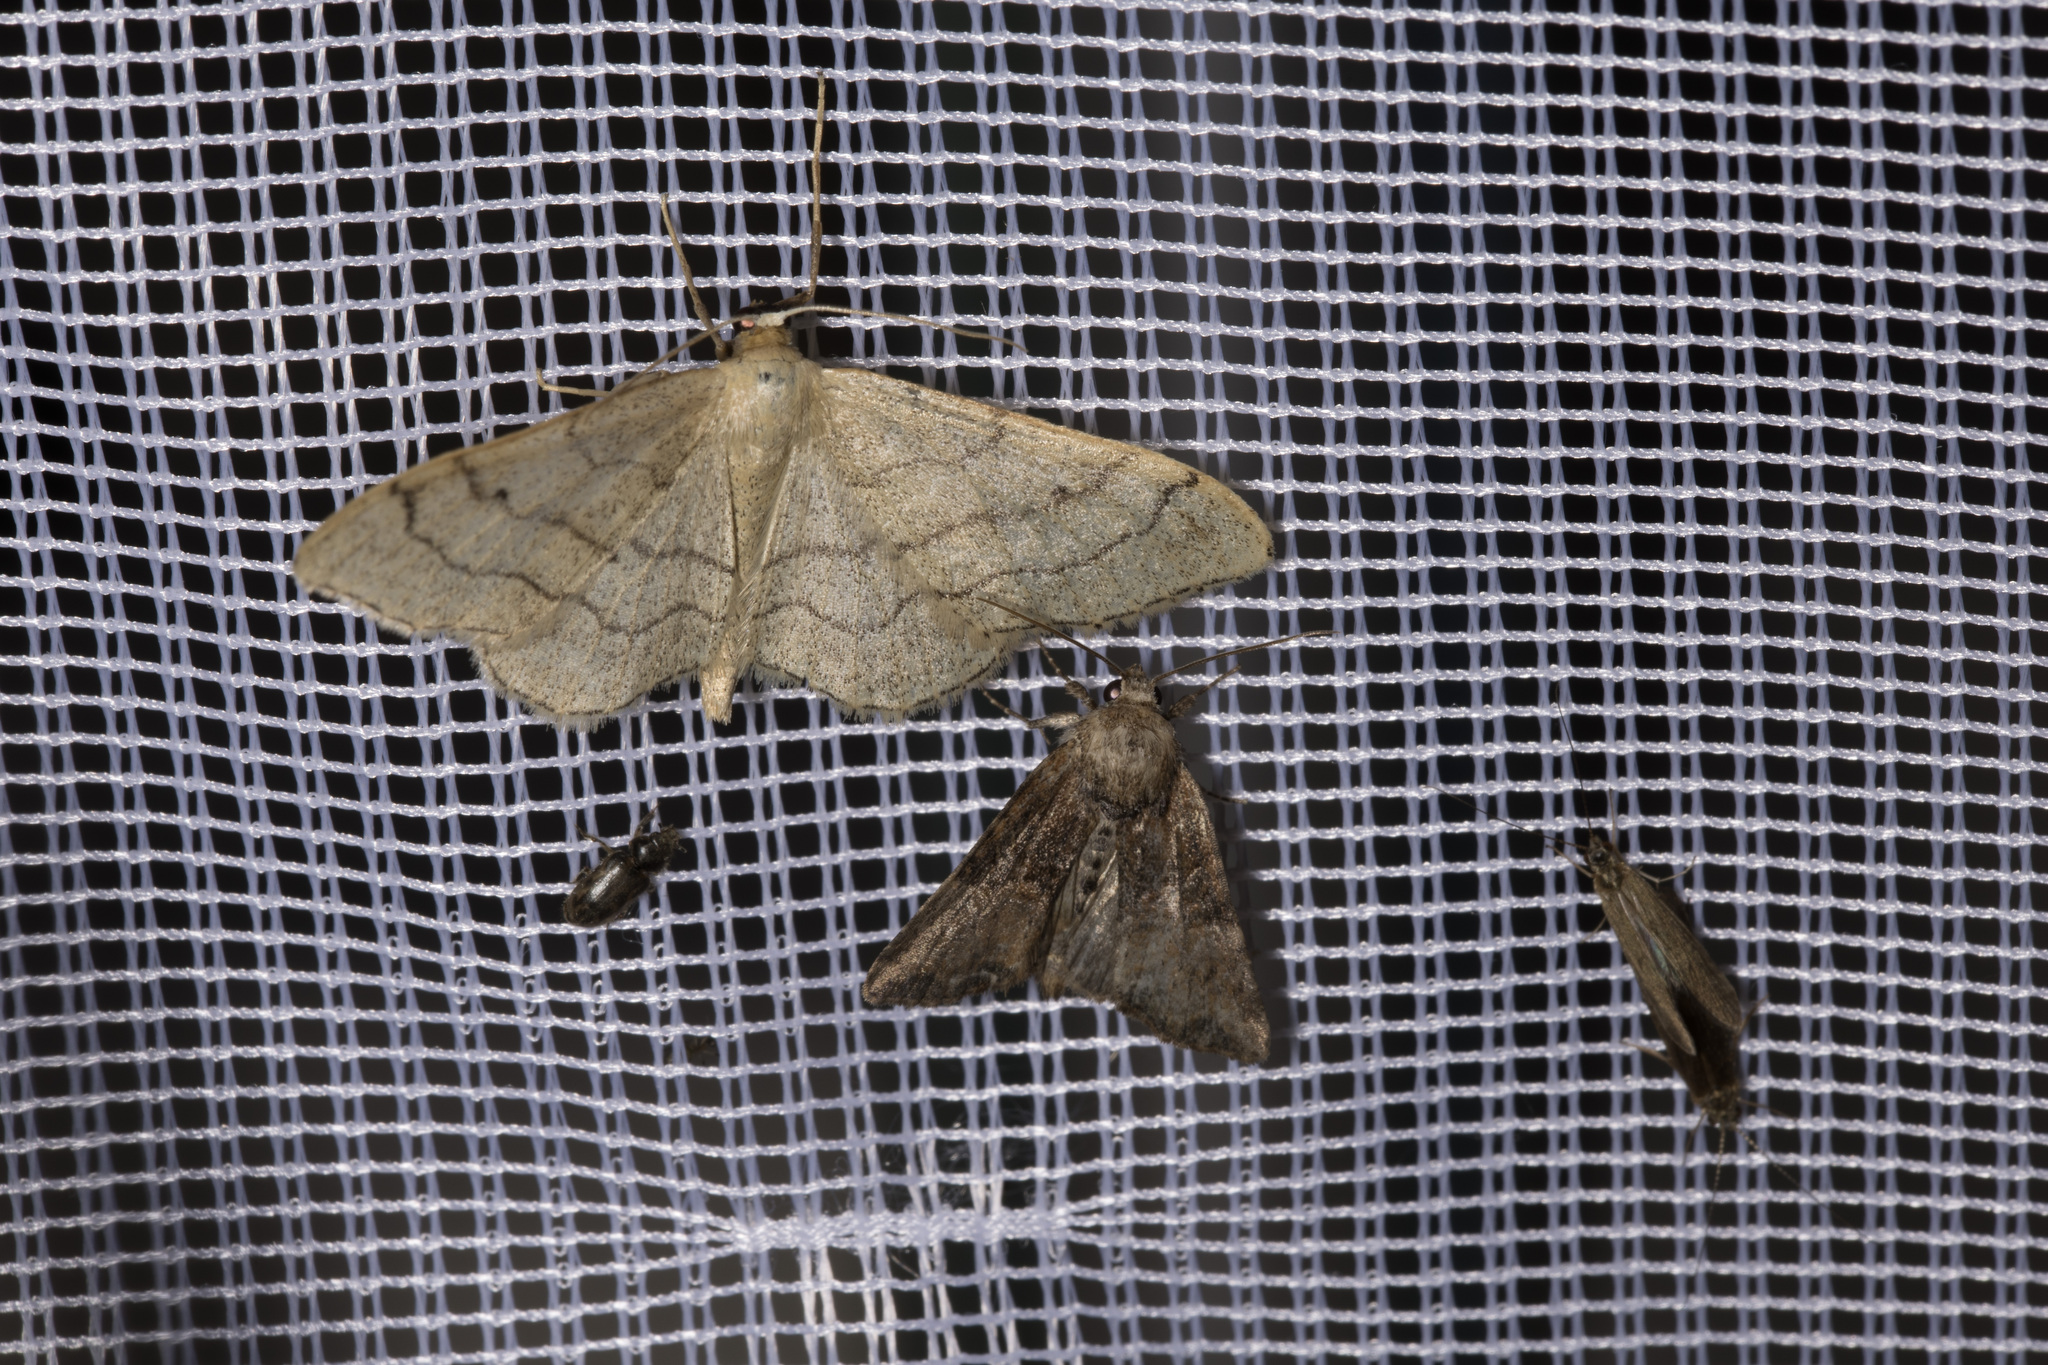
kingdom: Animalia
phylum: Arthropoda
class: Insecta
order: Lepidoptera
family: Geometridae
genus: Idaea
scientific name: Idaea aversata
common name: Riband wave
